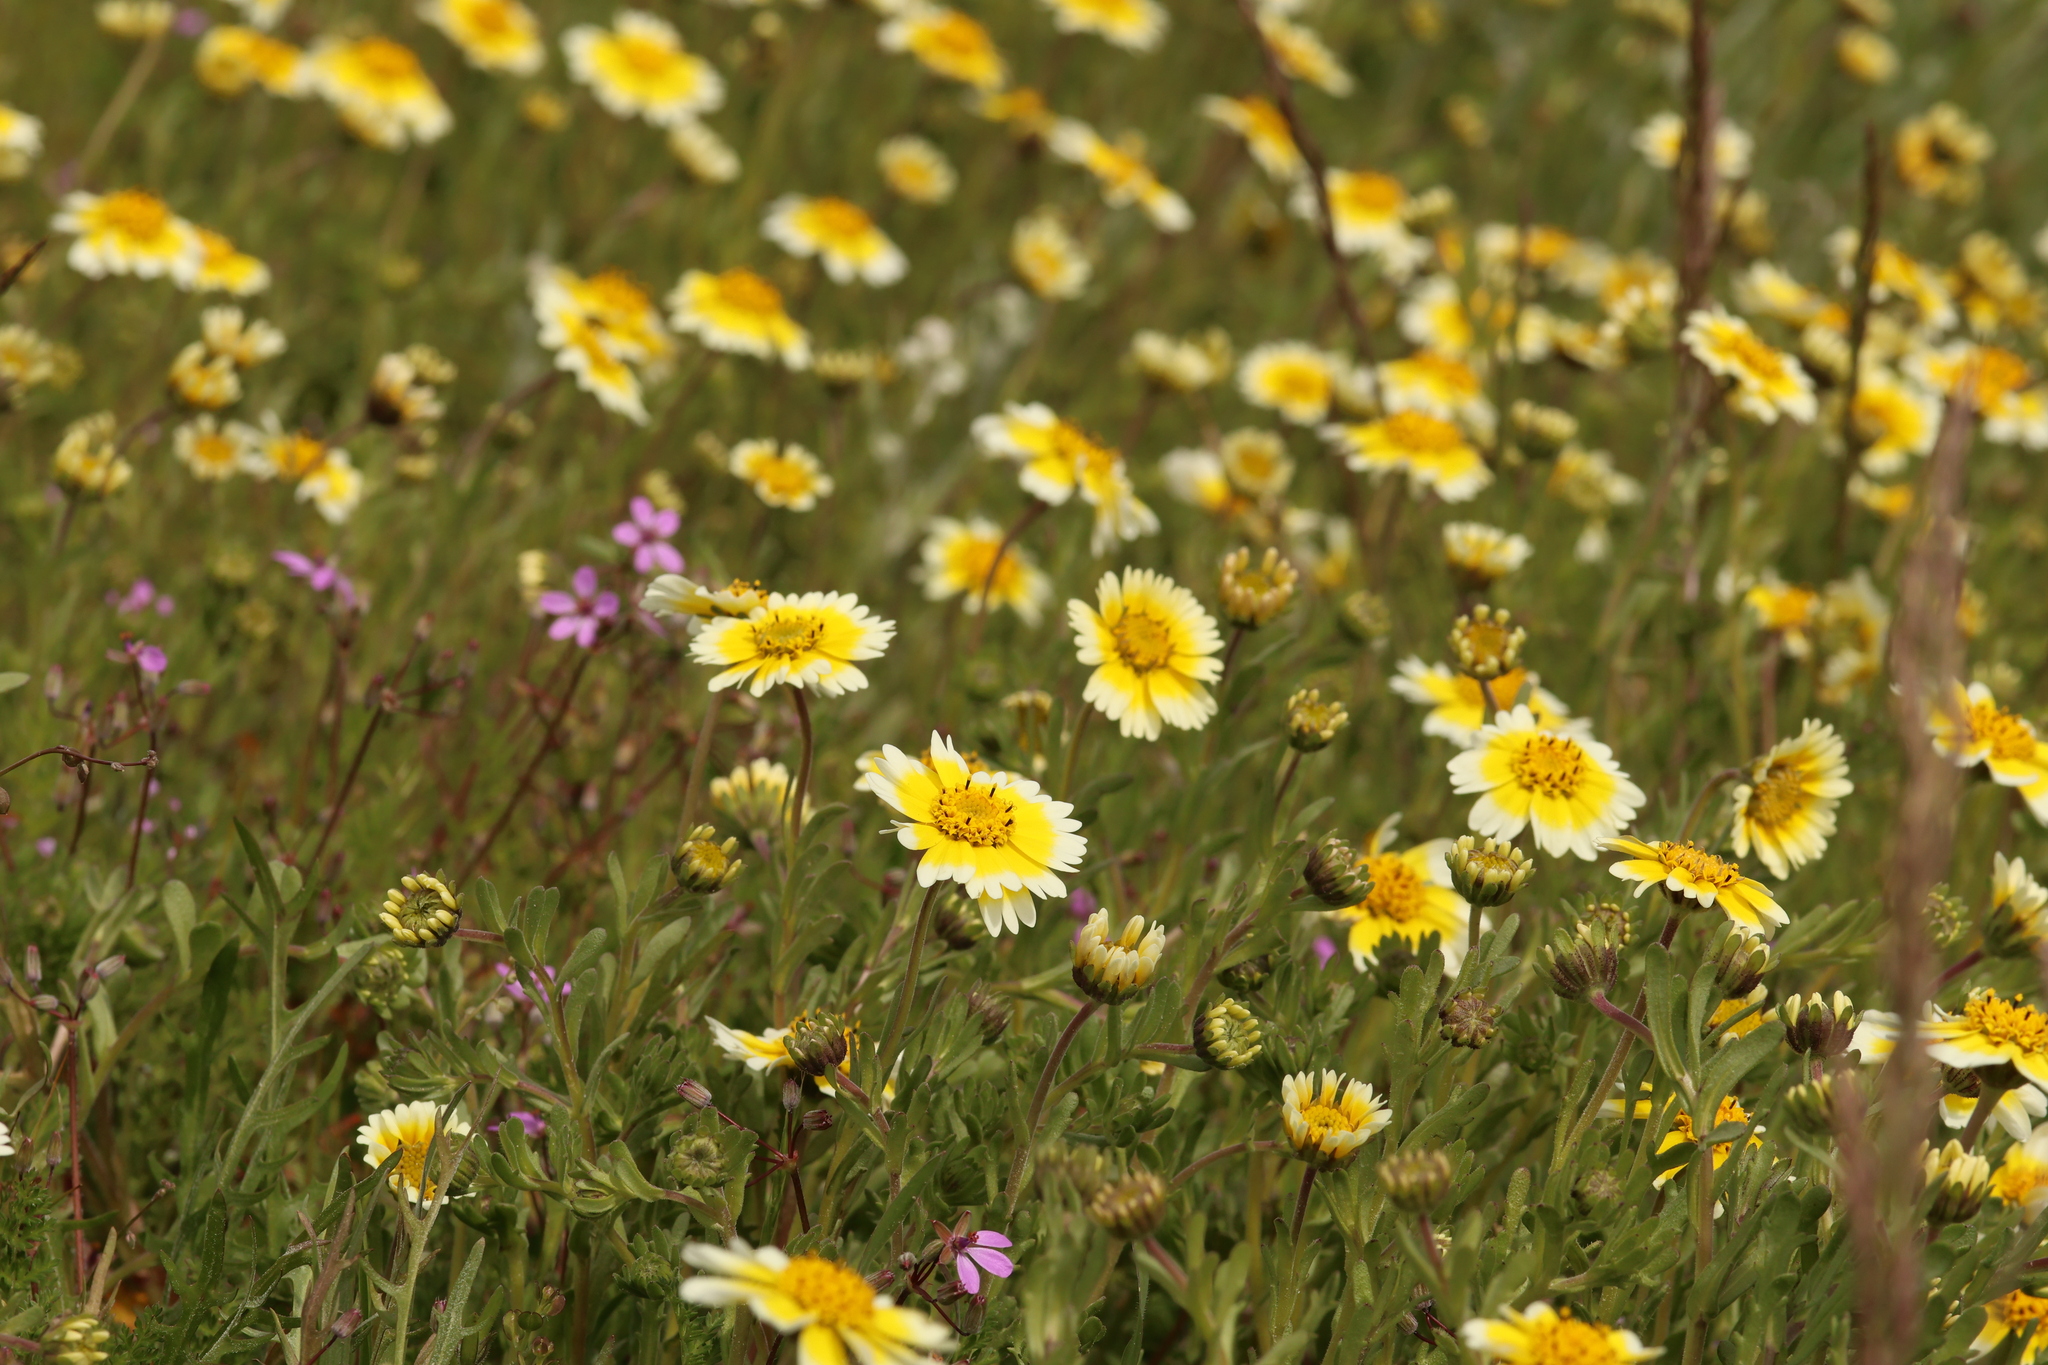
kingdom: Plantae
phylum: Tracheophyta
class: Magnoliopsida
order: Asterales
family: Asteraceae
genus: Layia
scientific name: Layia munzii
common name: Munz's tidy-tips
